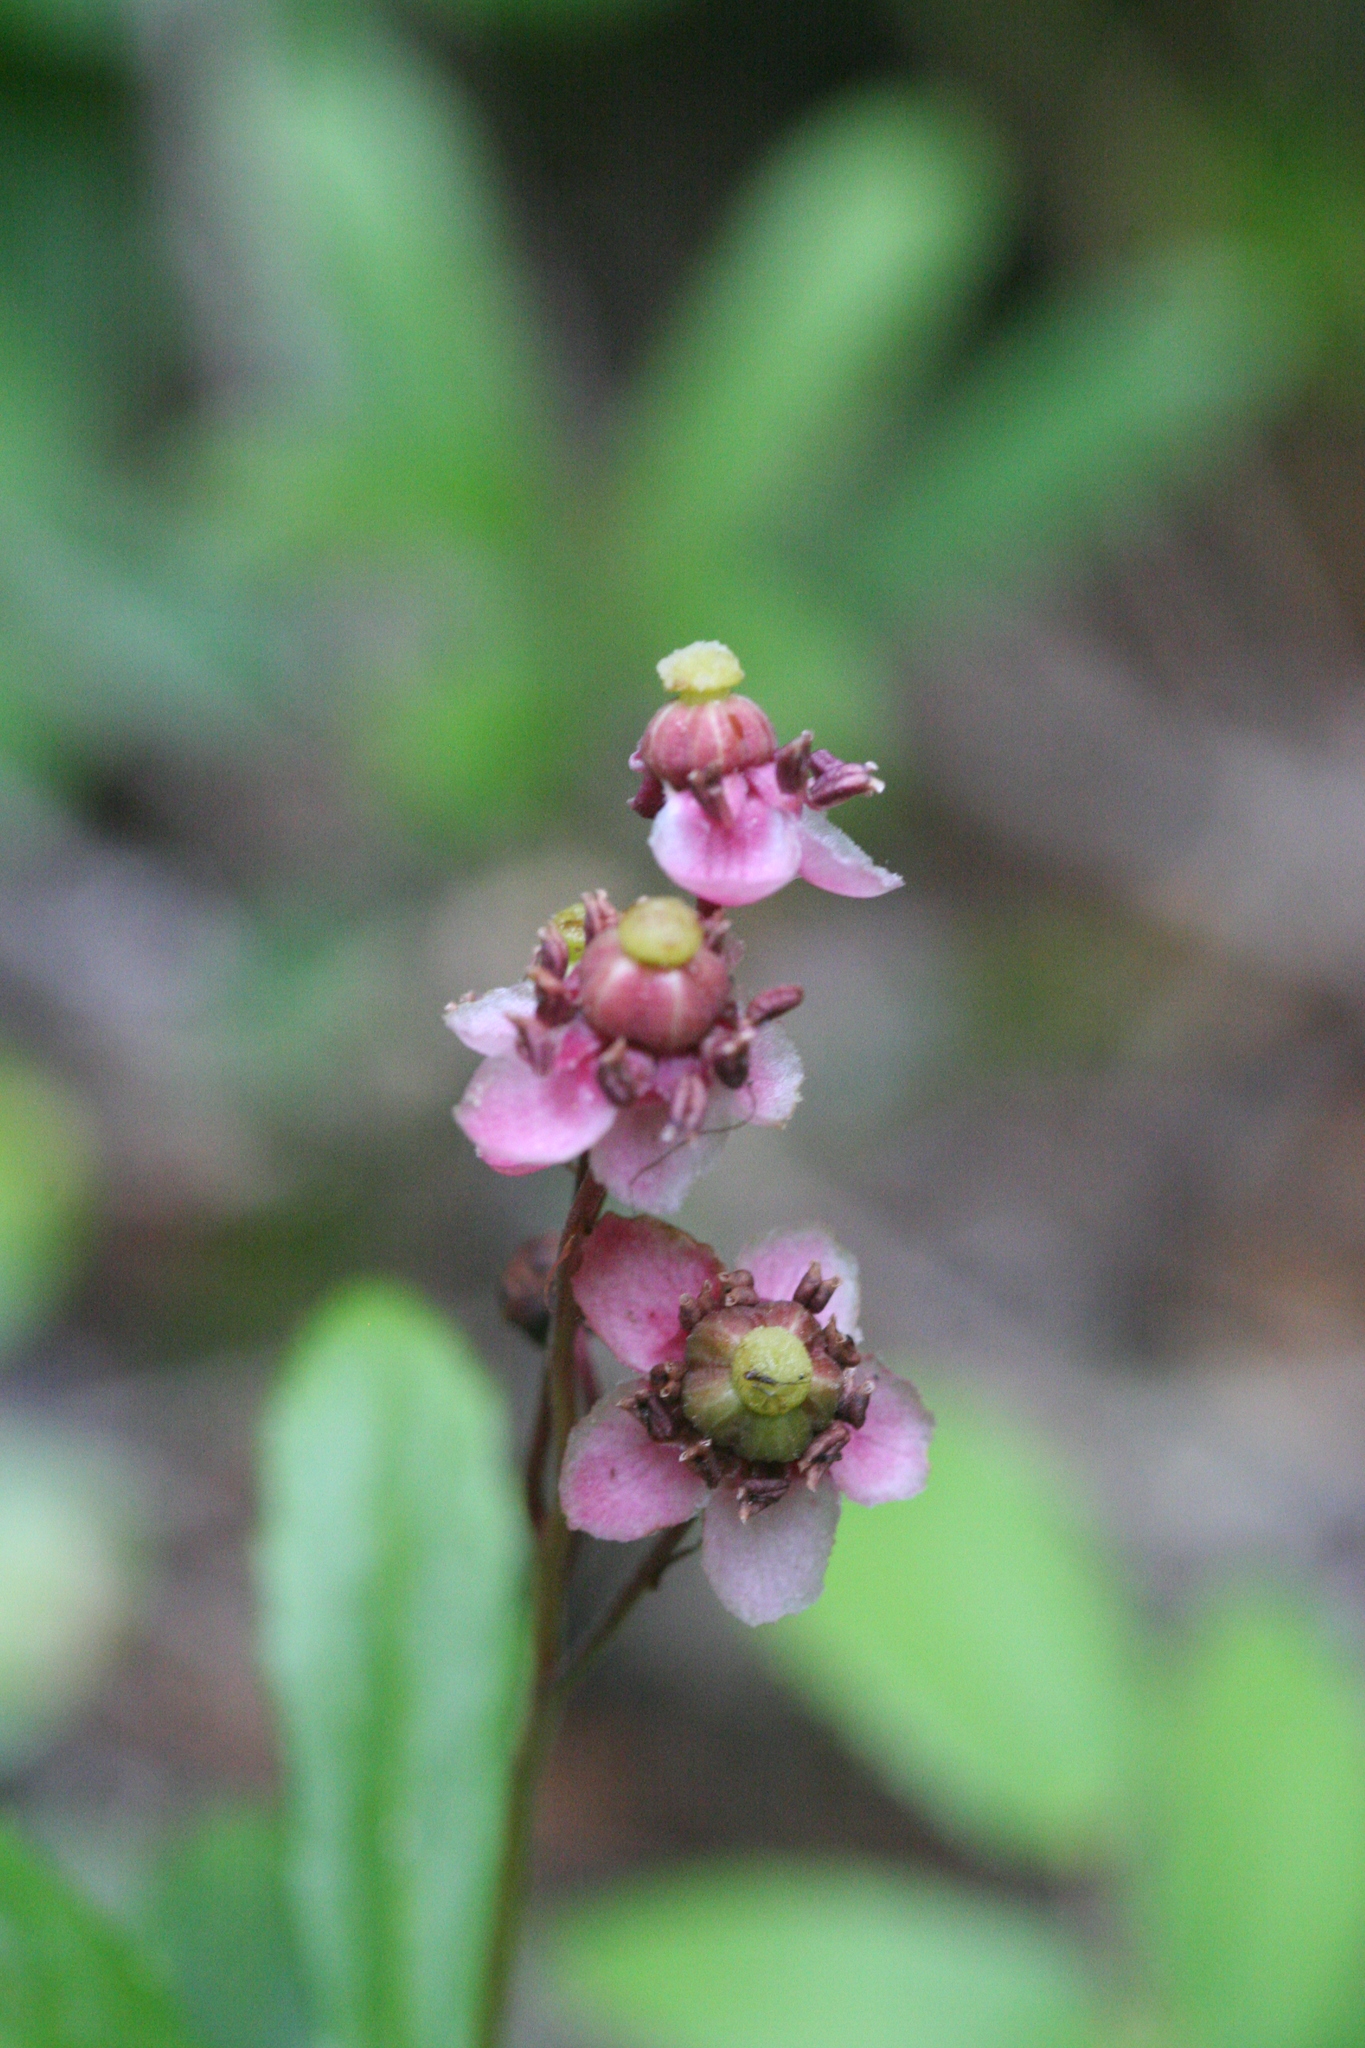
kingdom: Plantae
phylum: Tracheophyta
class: Magnoliopsida
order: Ericales
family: Ericaceae
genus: Chimaphila
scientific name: Chimaphila umbellata
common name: Pipsissewa
